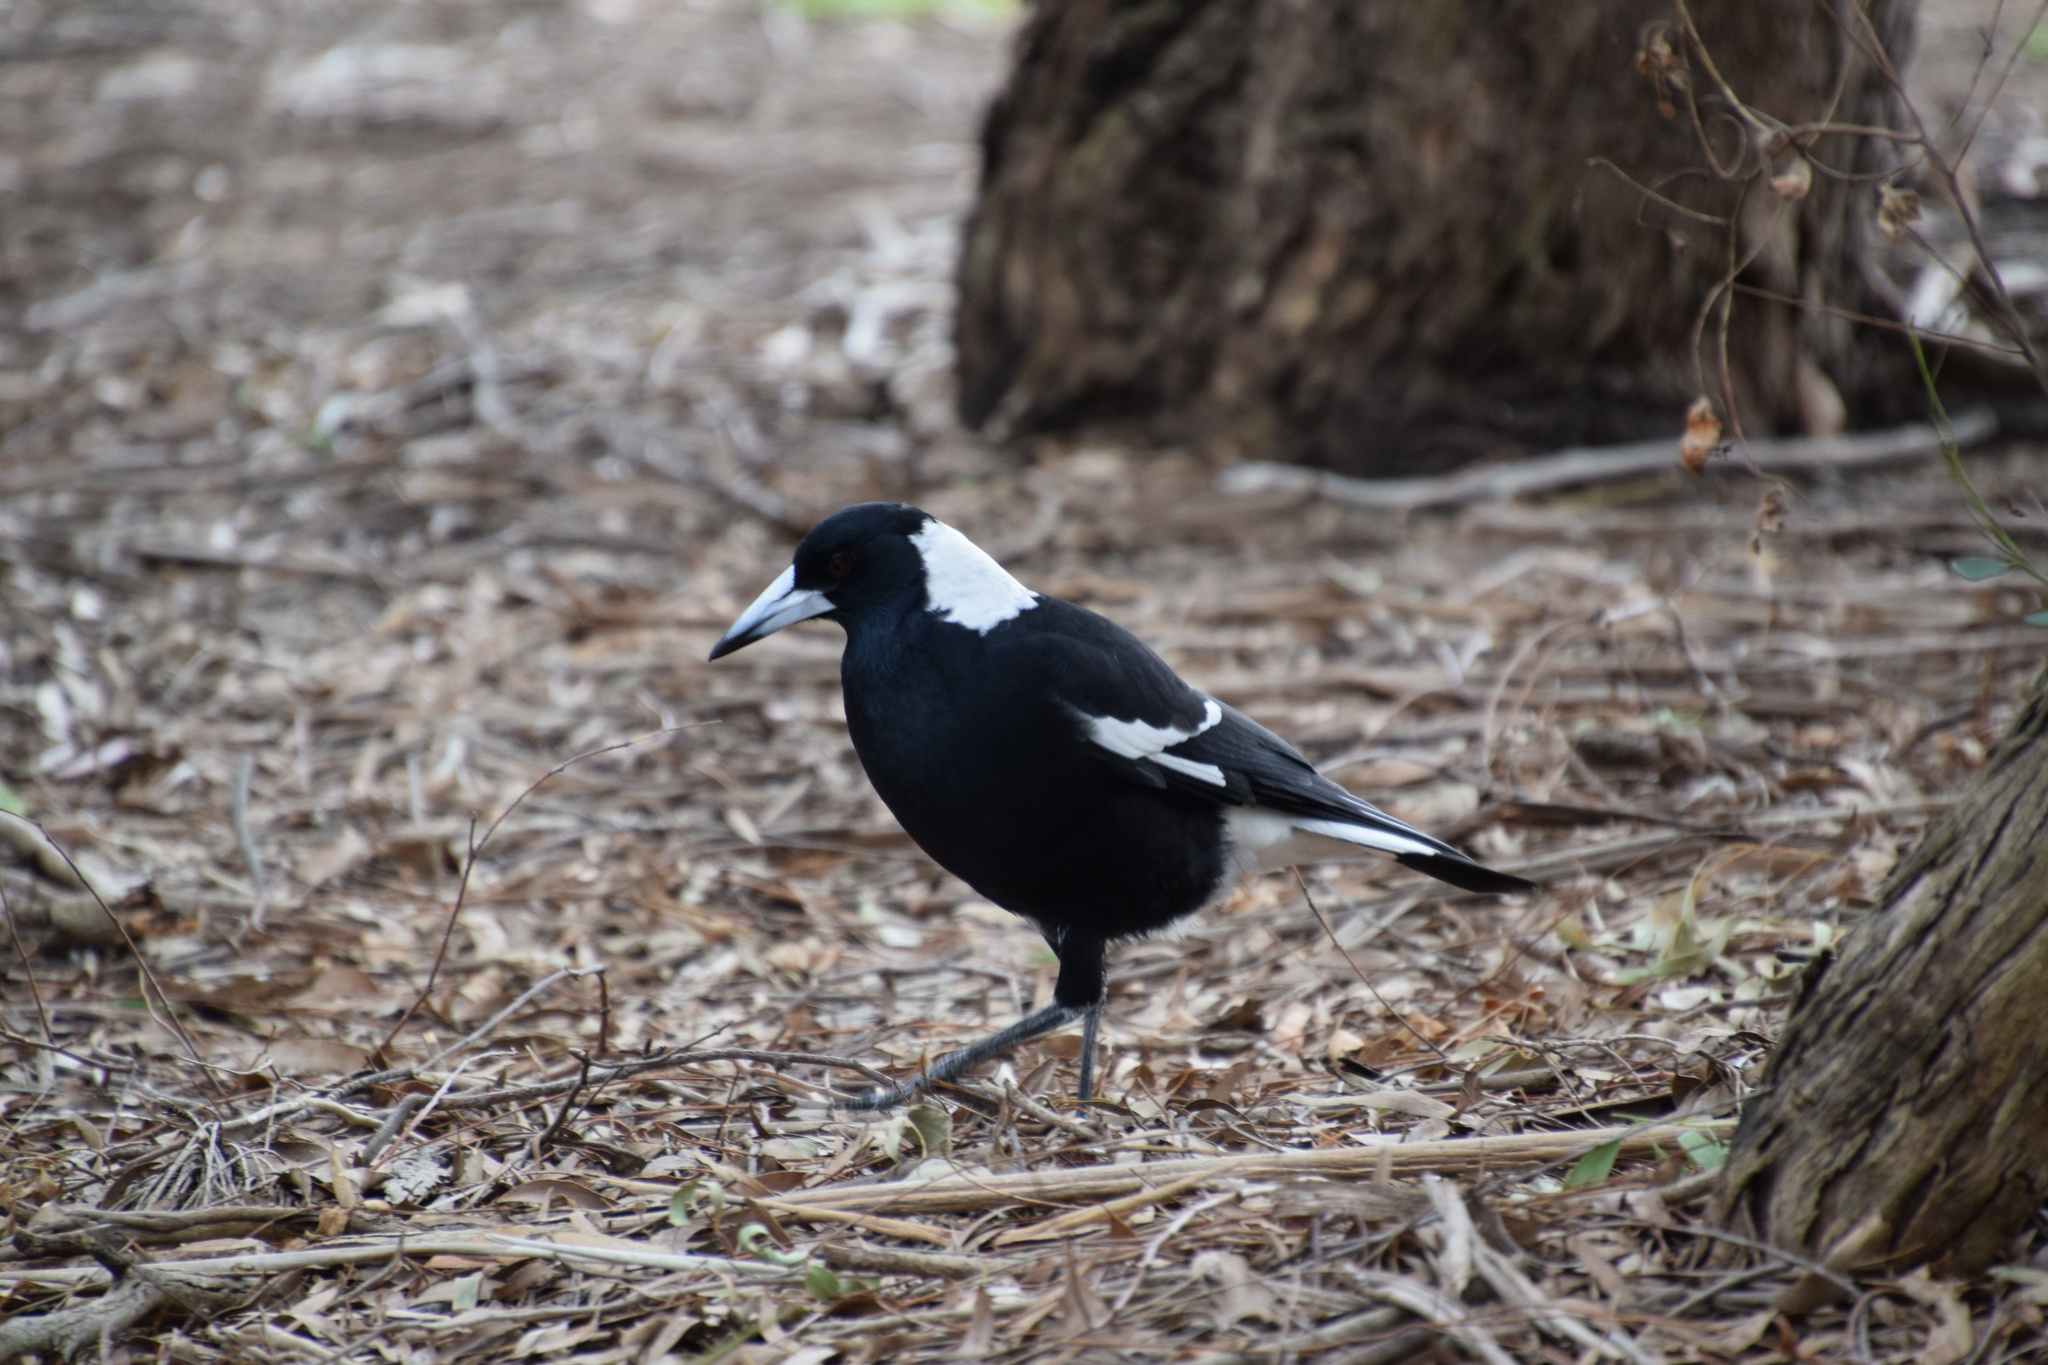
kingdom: Animalia
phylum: Chordata
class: Aves
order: Passeriformes
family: Cracticidae
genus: Gymnorhina
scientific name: Gymnorhina tibicen
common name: Australian magpie
